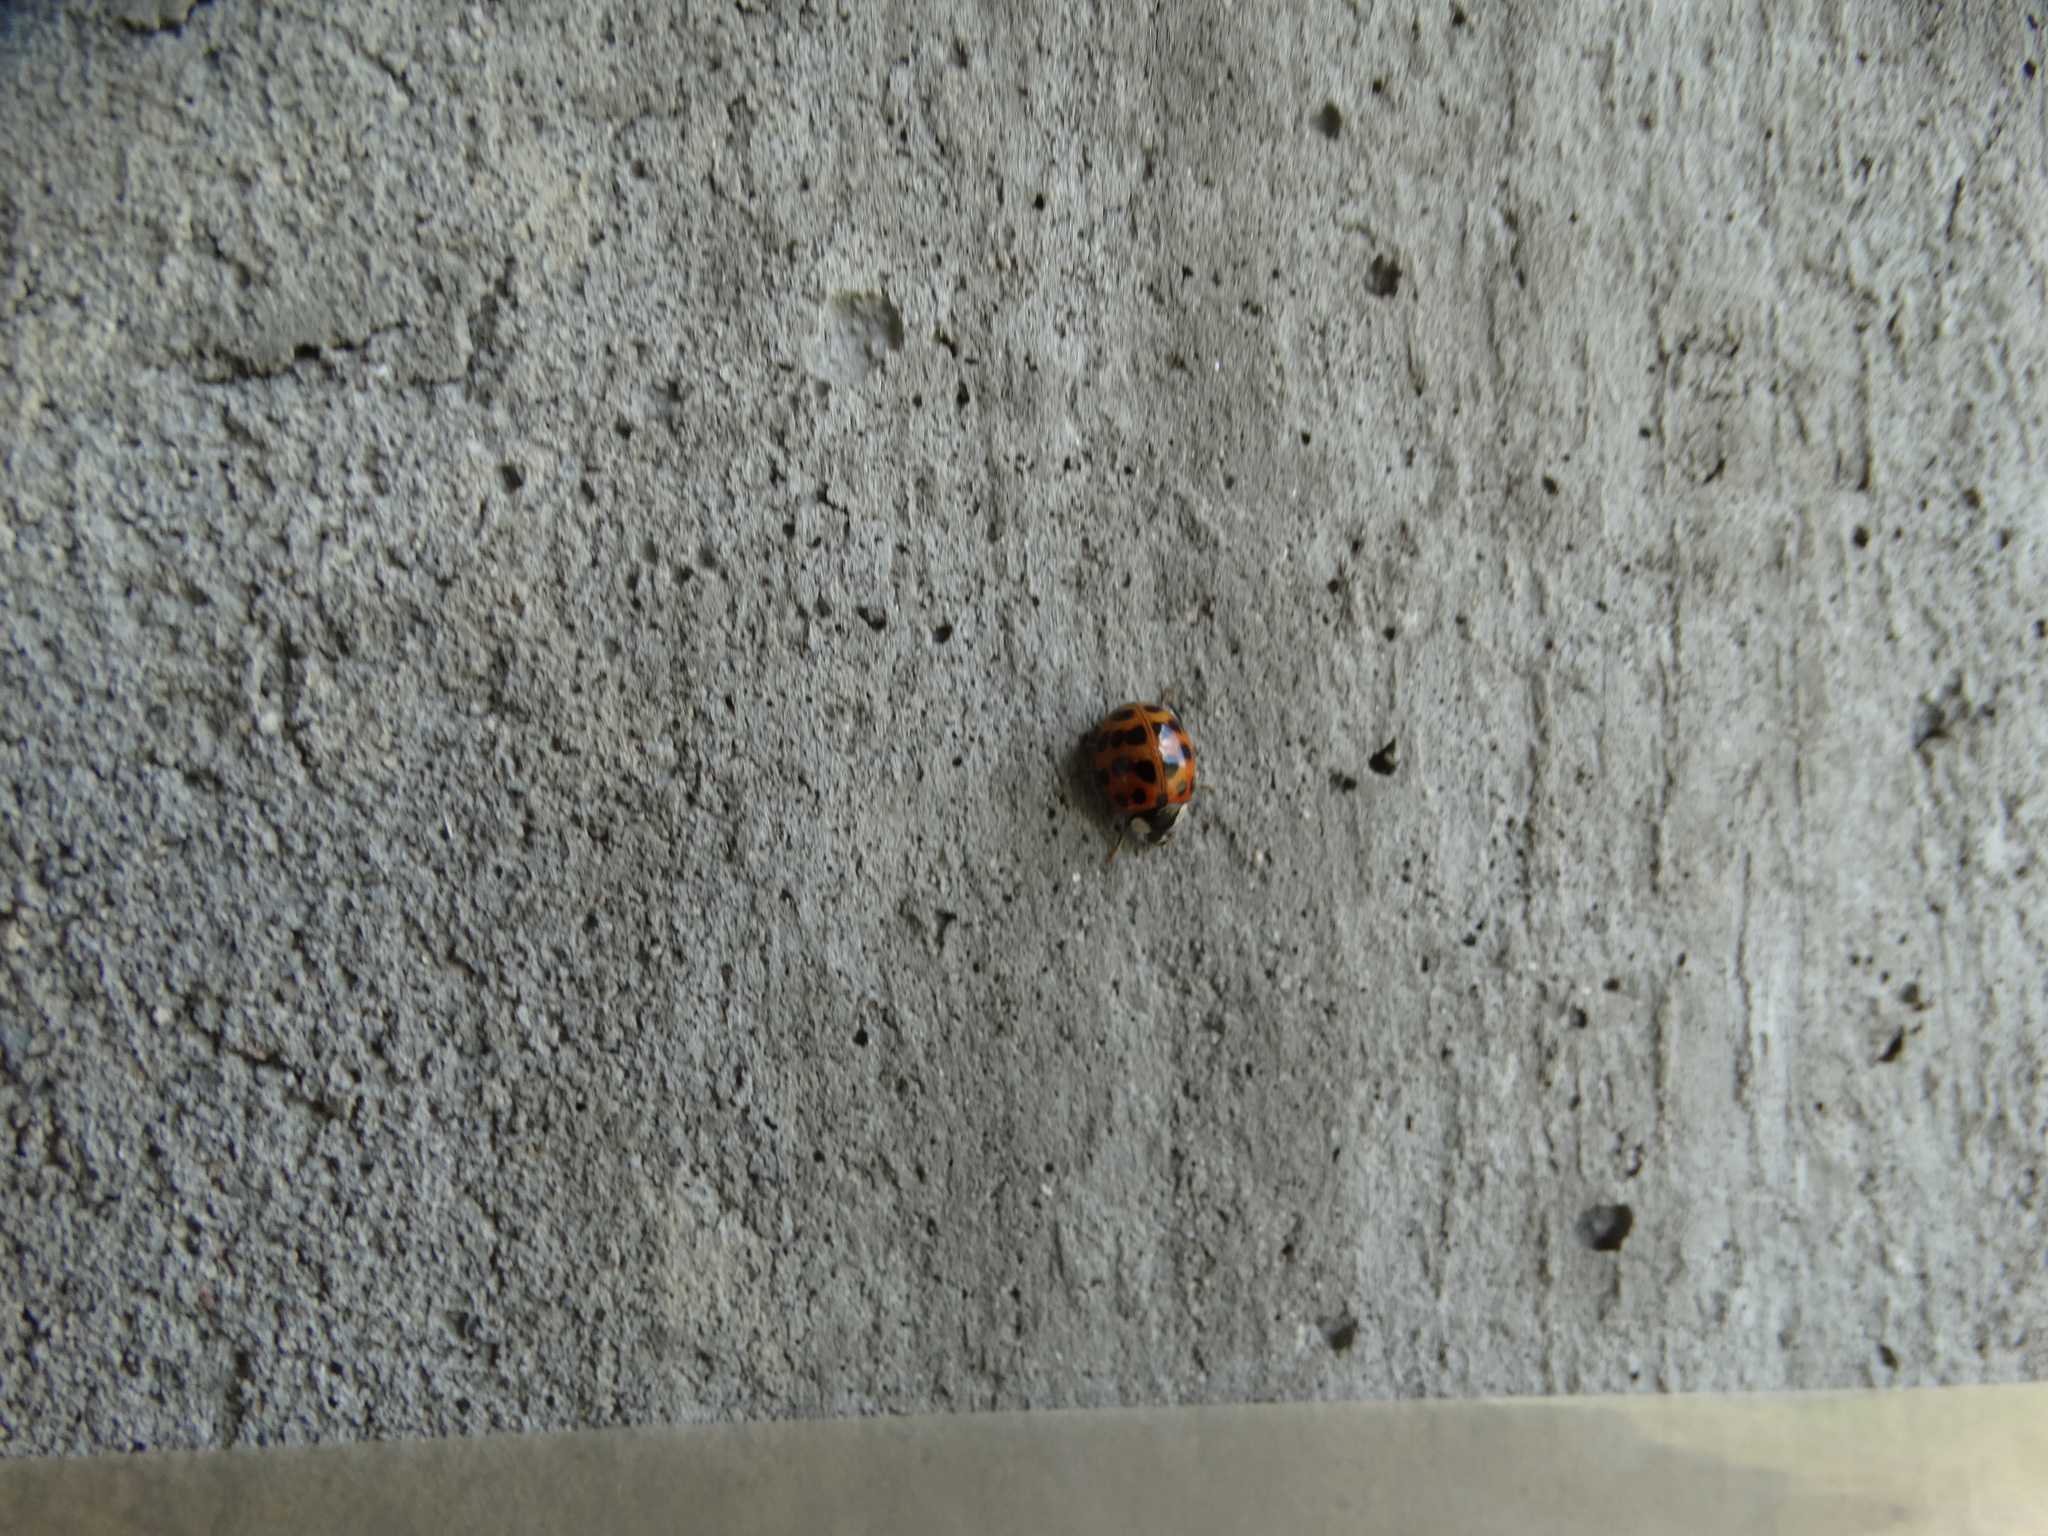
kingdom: Animalia
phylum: Arthropoda
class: Insecta
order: Coleoptera
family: Coccinellidae
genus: Harmonia
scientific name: Harmonia axyridis
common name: Harlequin ladybird
